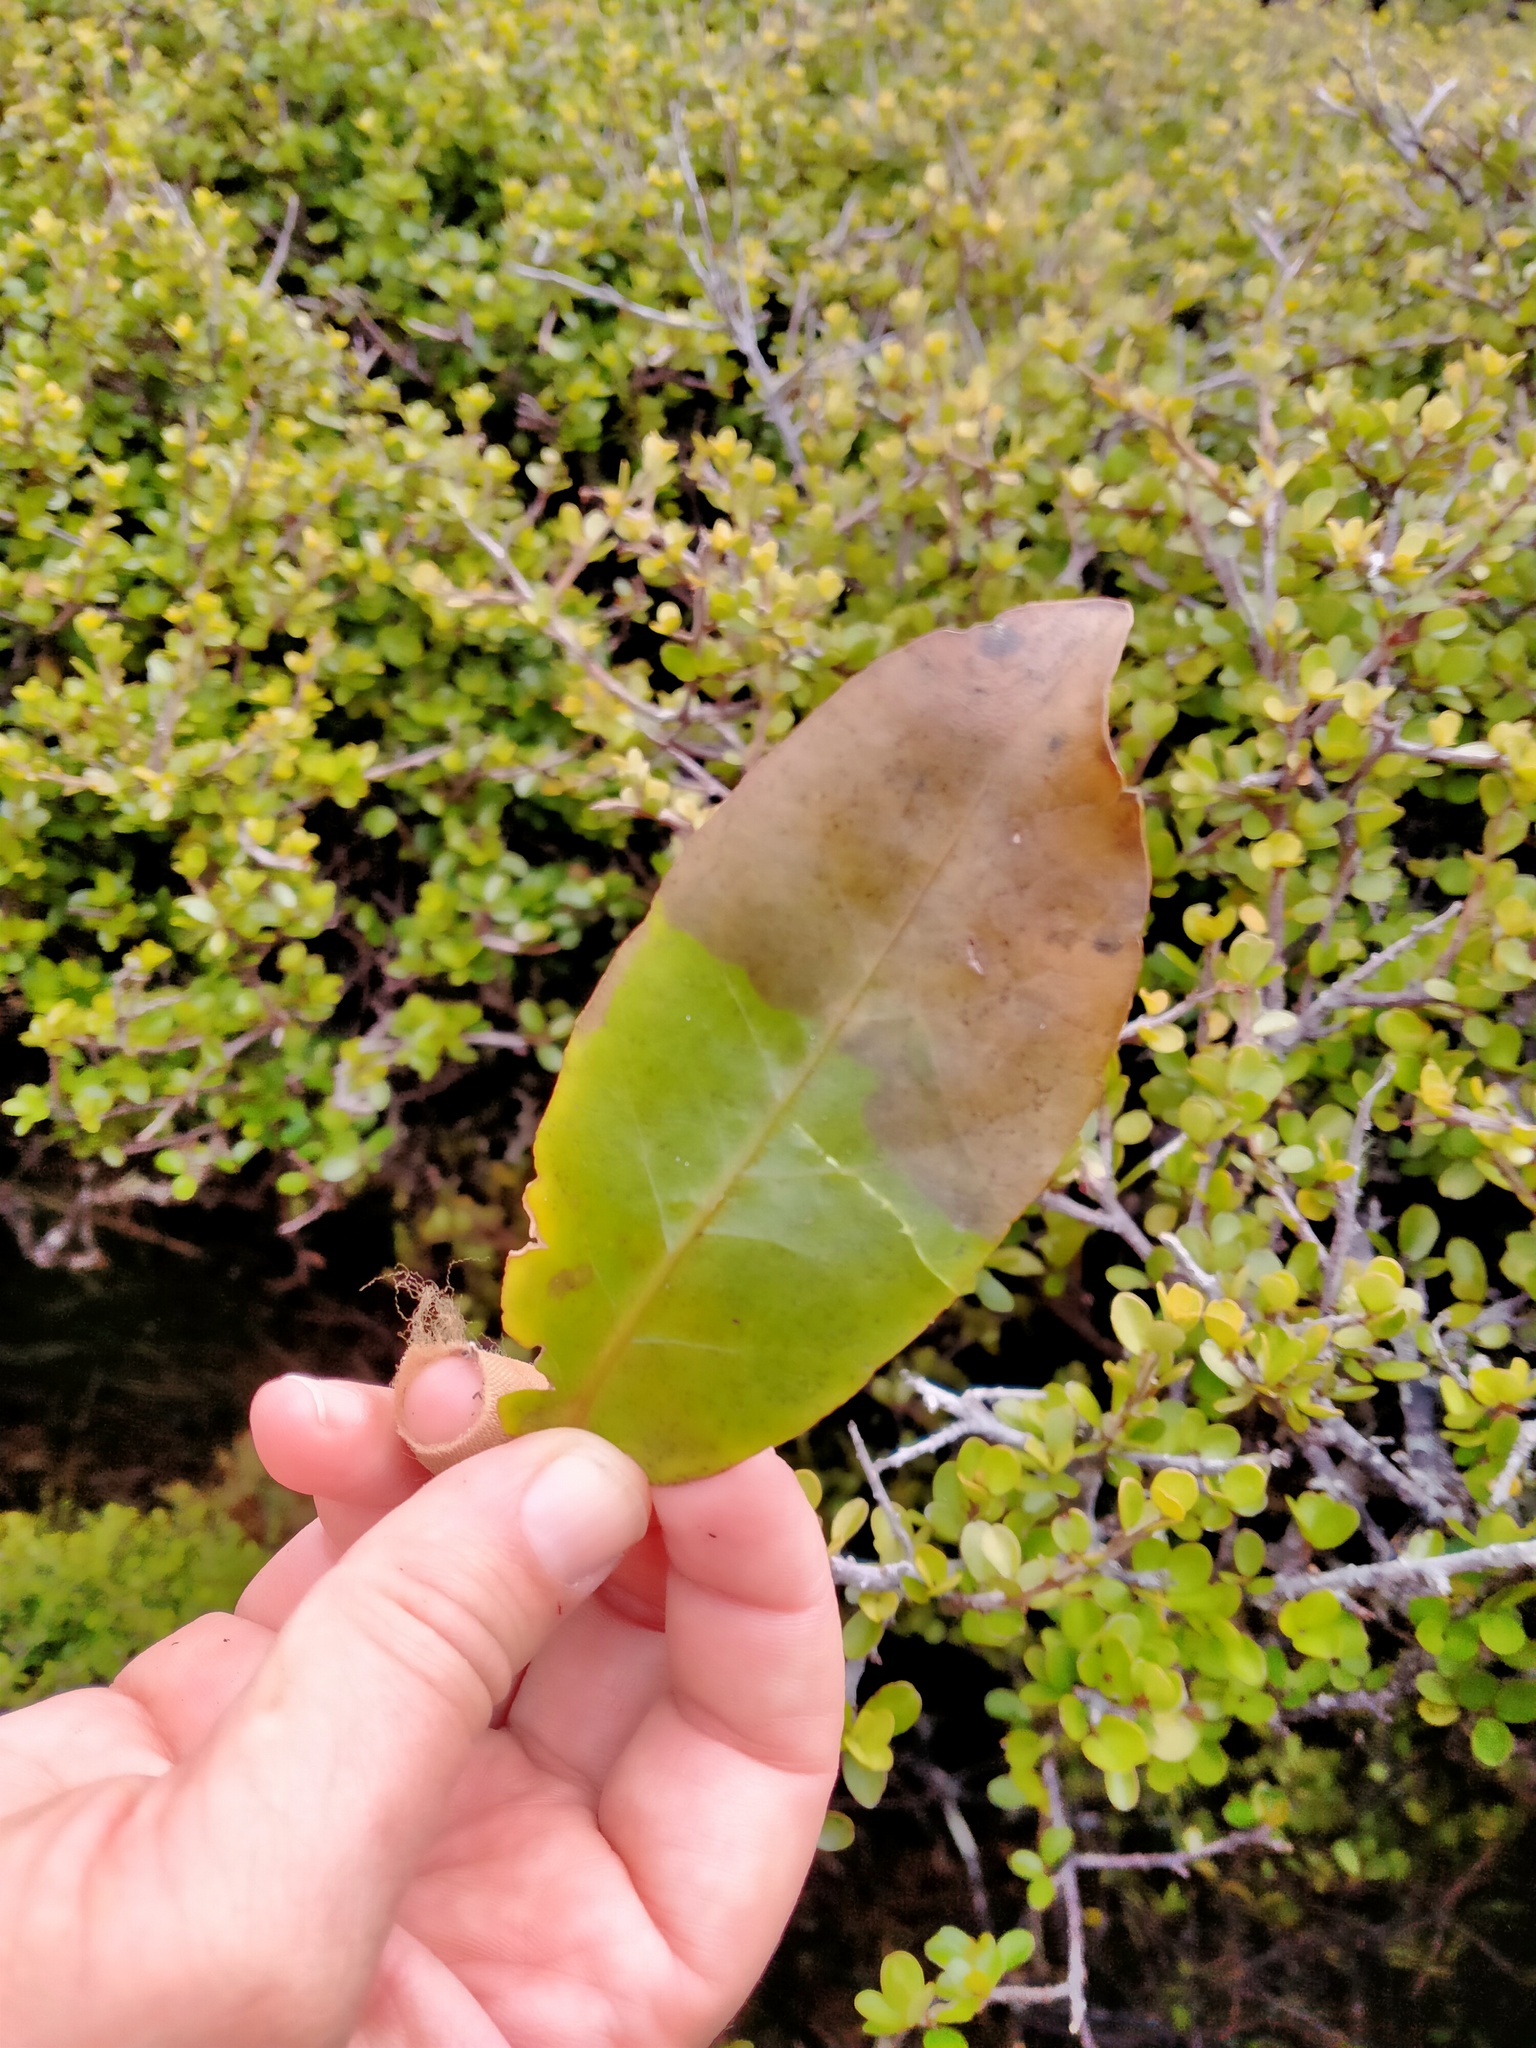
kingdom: Plantae
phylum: Tracheophyta
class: Magnoliopsida
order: Apiales
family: Araliaceae
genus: Raukaua
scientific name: Raukaua simplex
